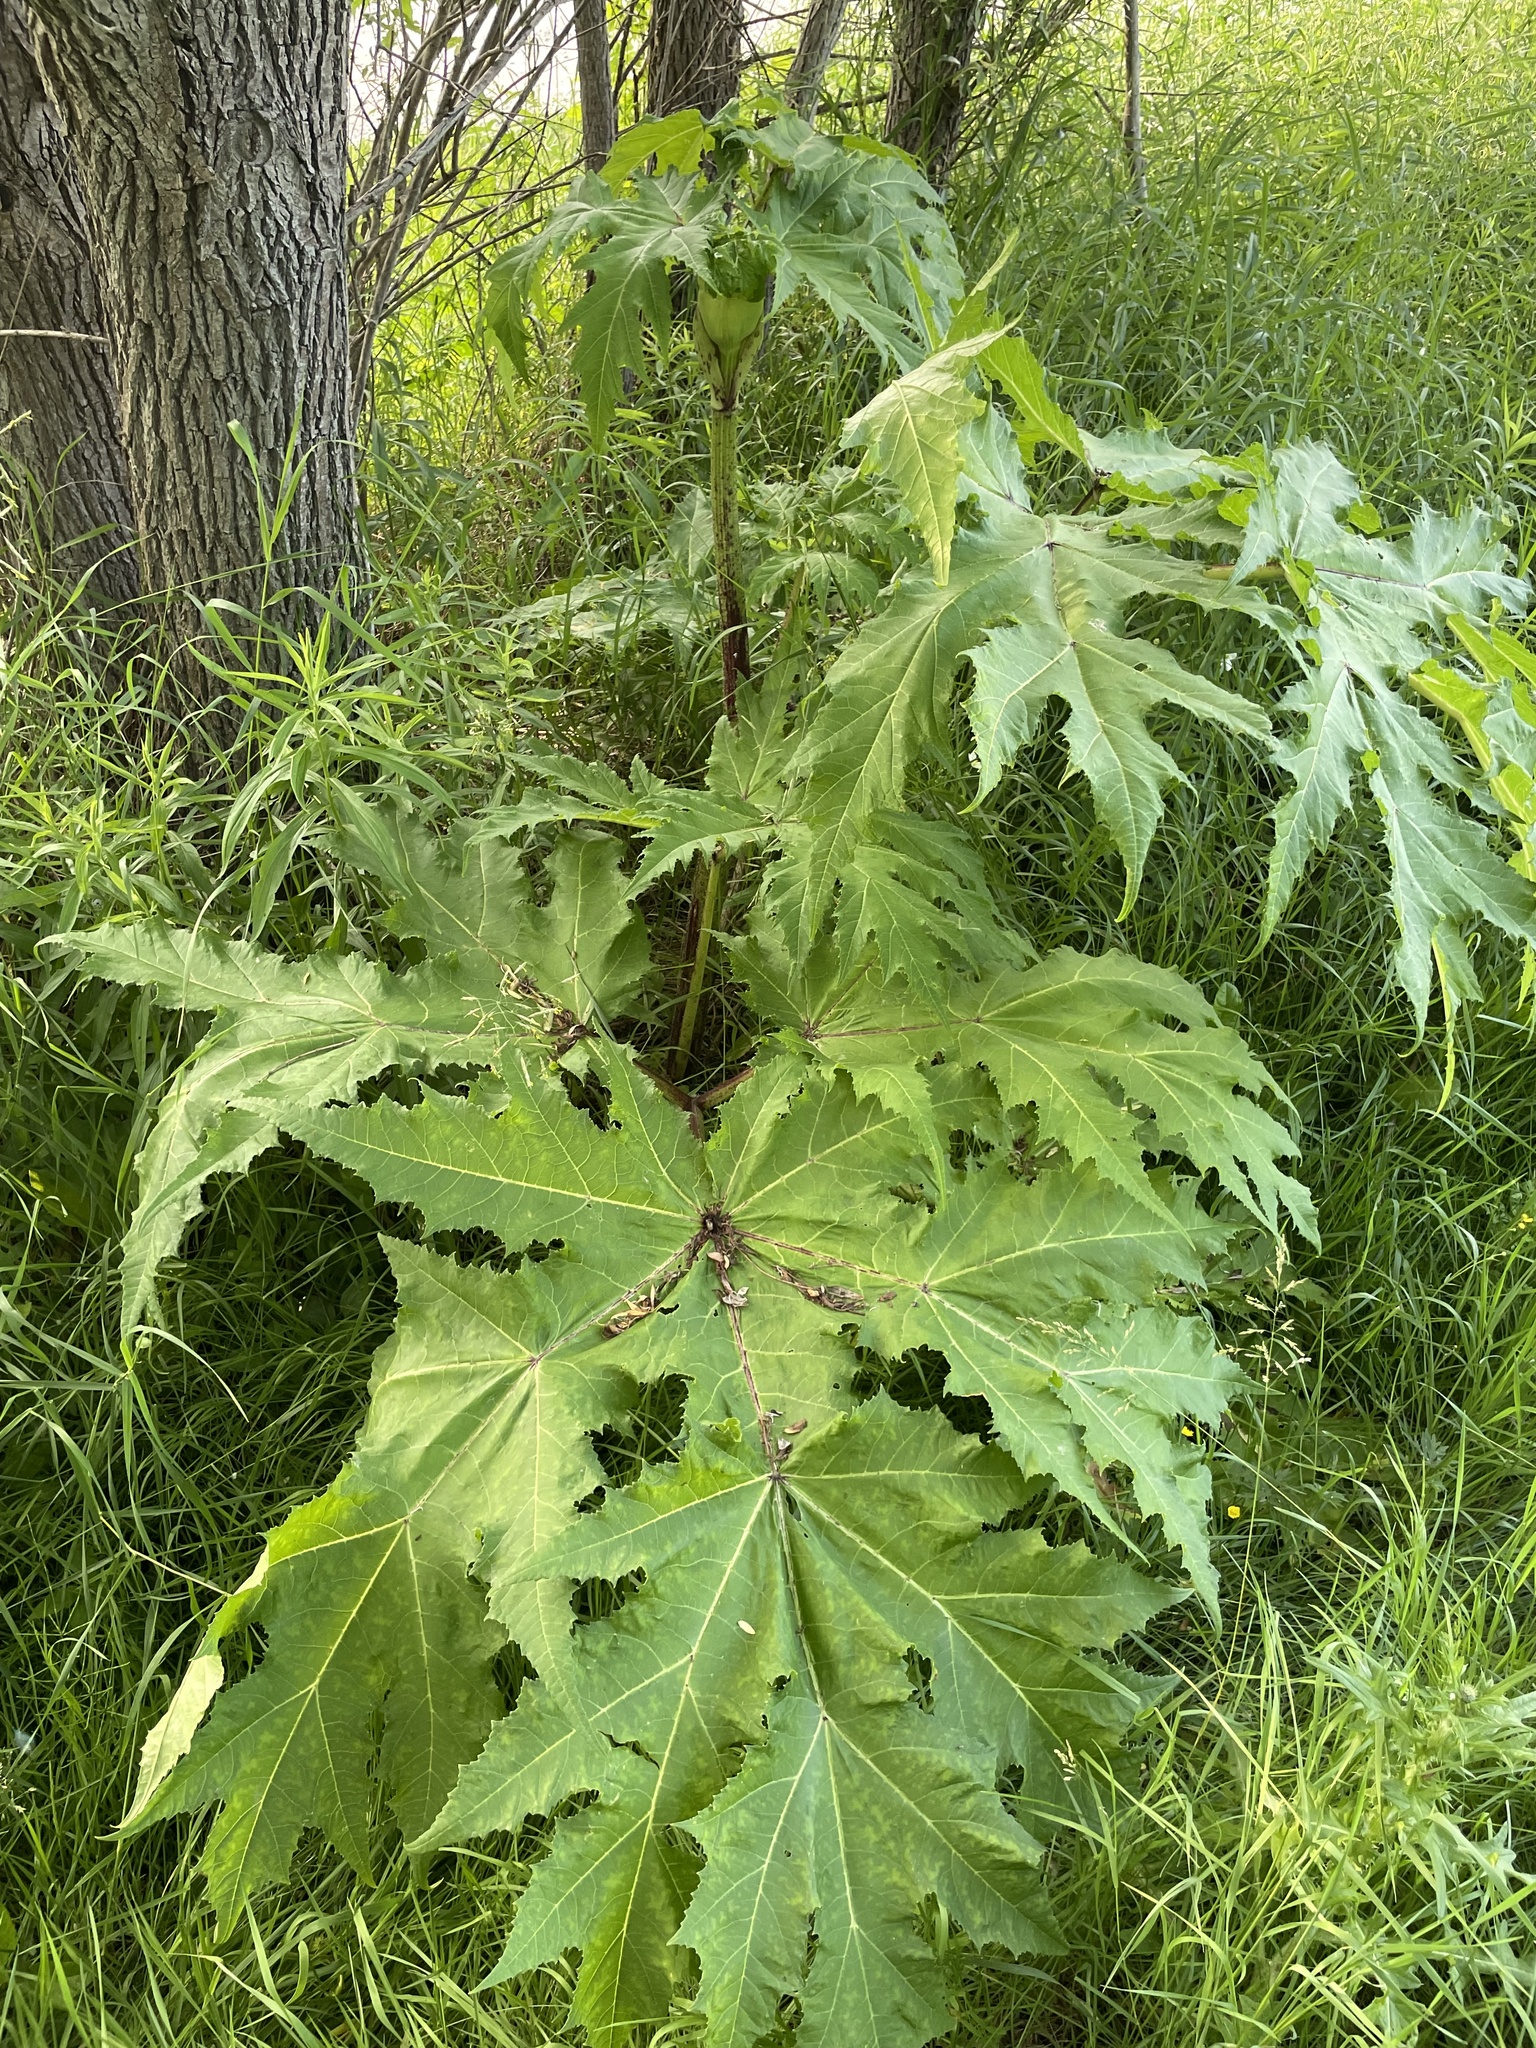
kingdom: Plantae
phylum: Tracheophyta
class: Magnoliopsida
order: Apiales
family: Apiaceae
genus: Heracleum
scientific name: Heracleum mantegazzianum
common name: Giant hogweed
